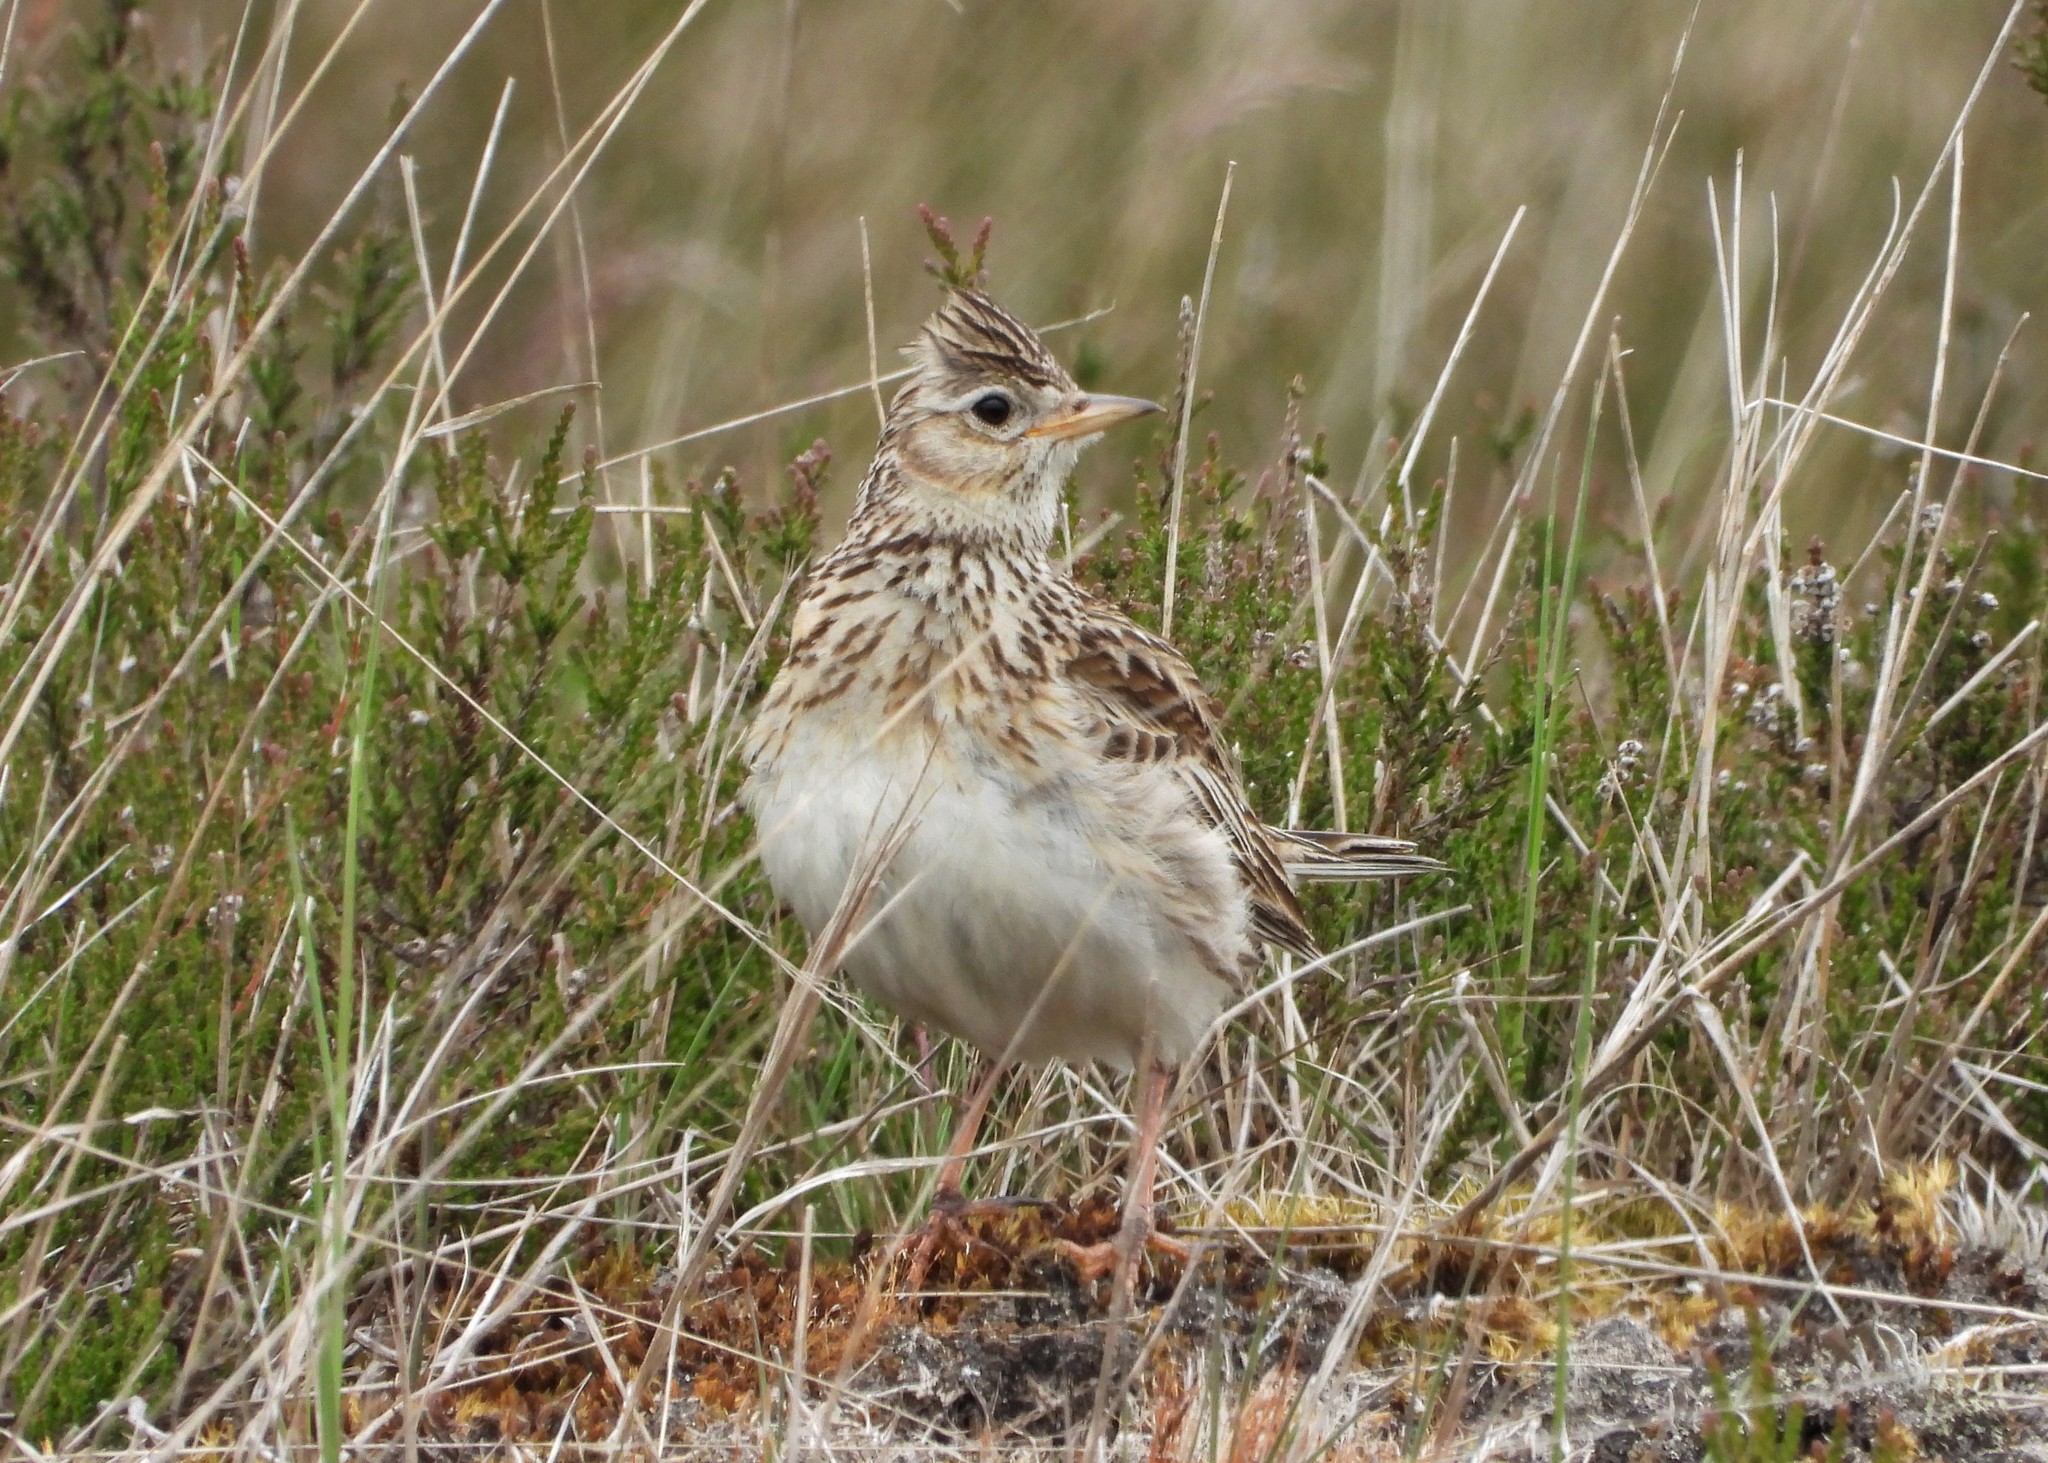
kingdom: Animalia
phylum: Chordata
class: Aves
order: Passeriformes
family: Alaudidae
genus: Alauda
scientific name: Alauda arvensis
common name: Eurasian skylark
